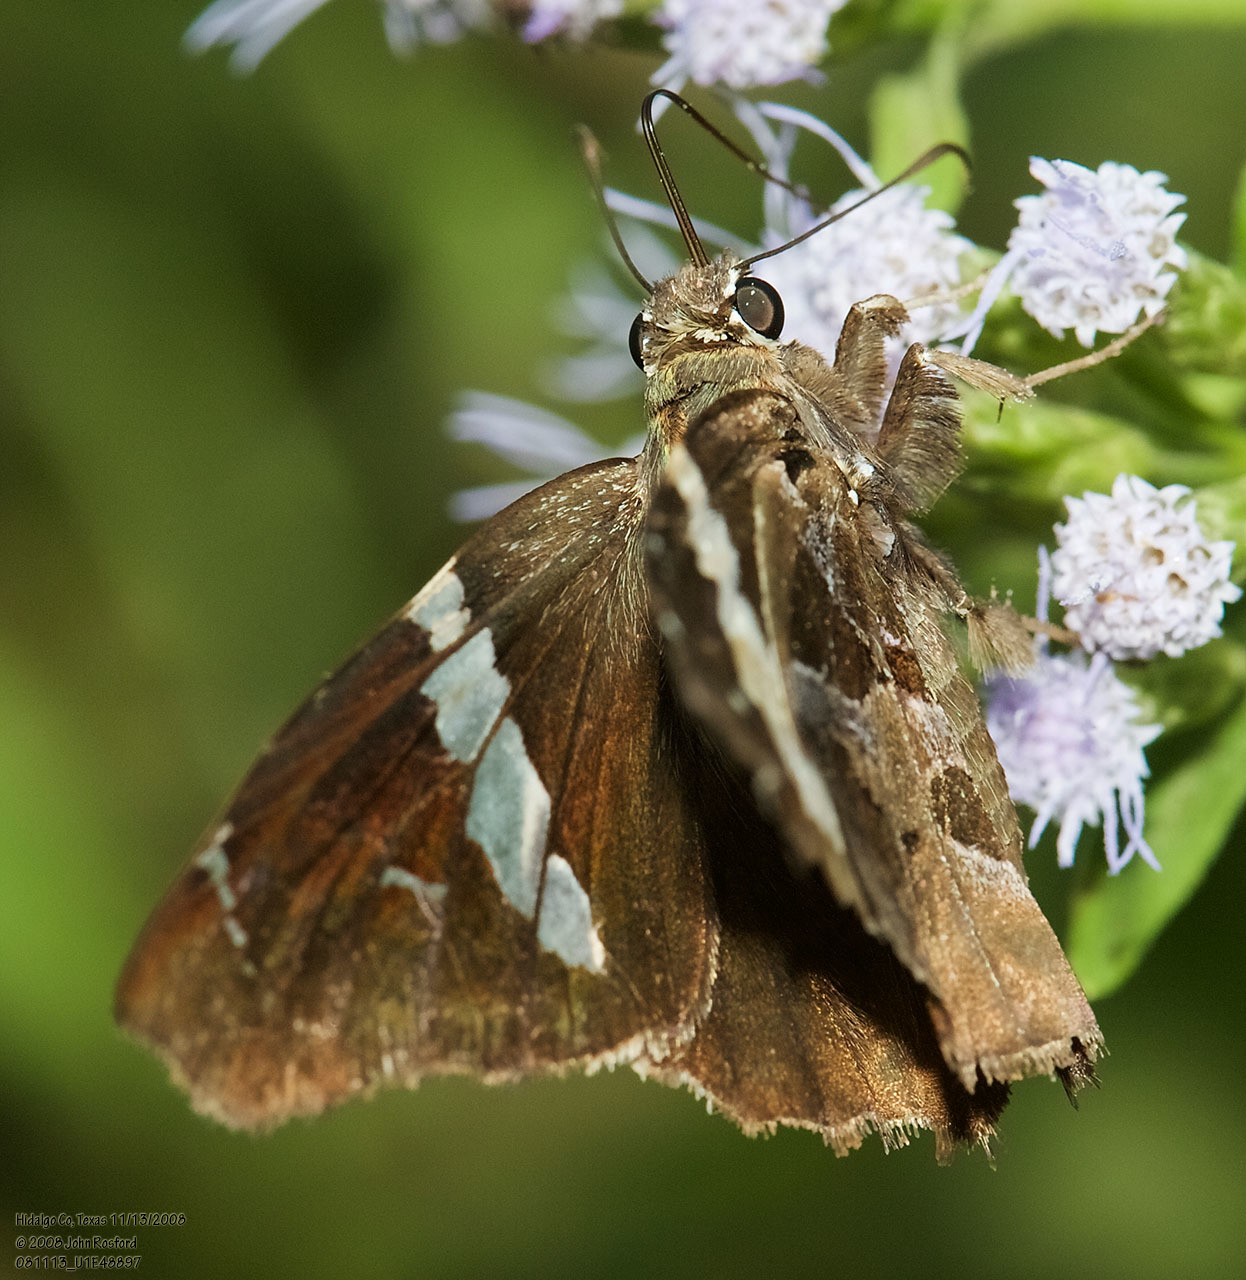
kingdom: Animalia
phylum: Arthropoda
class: Insecta
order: Lepidoptera
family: Hesperiidae
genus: Spathilepia
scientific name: Spathilepia clonius
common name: Falcate skipper
